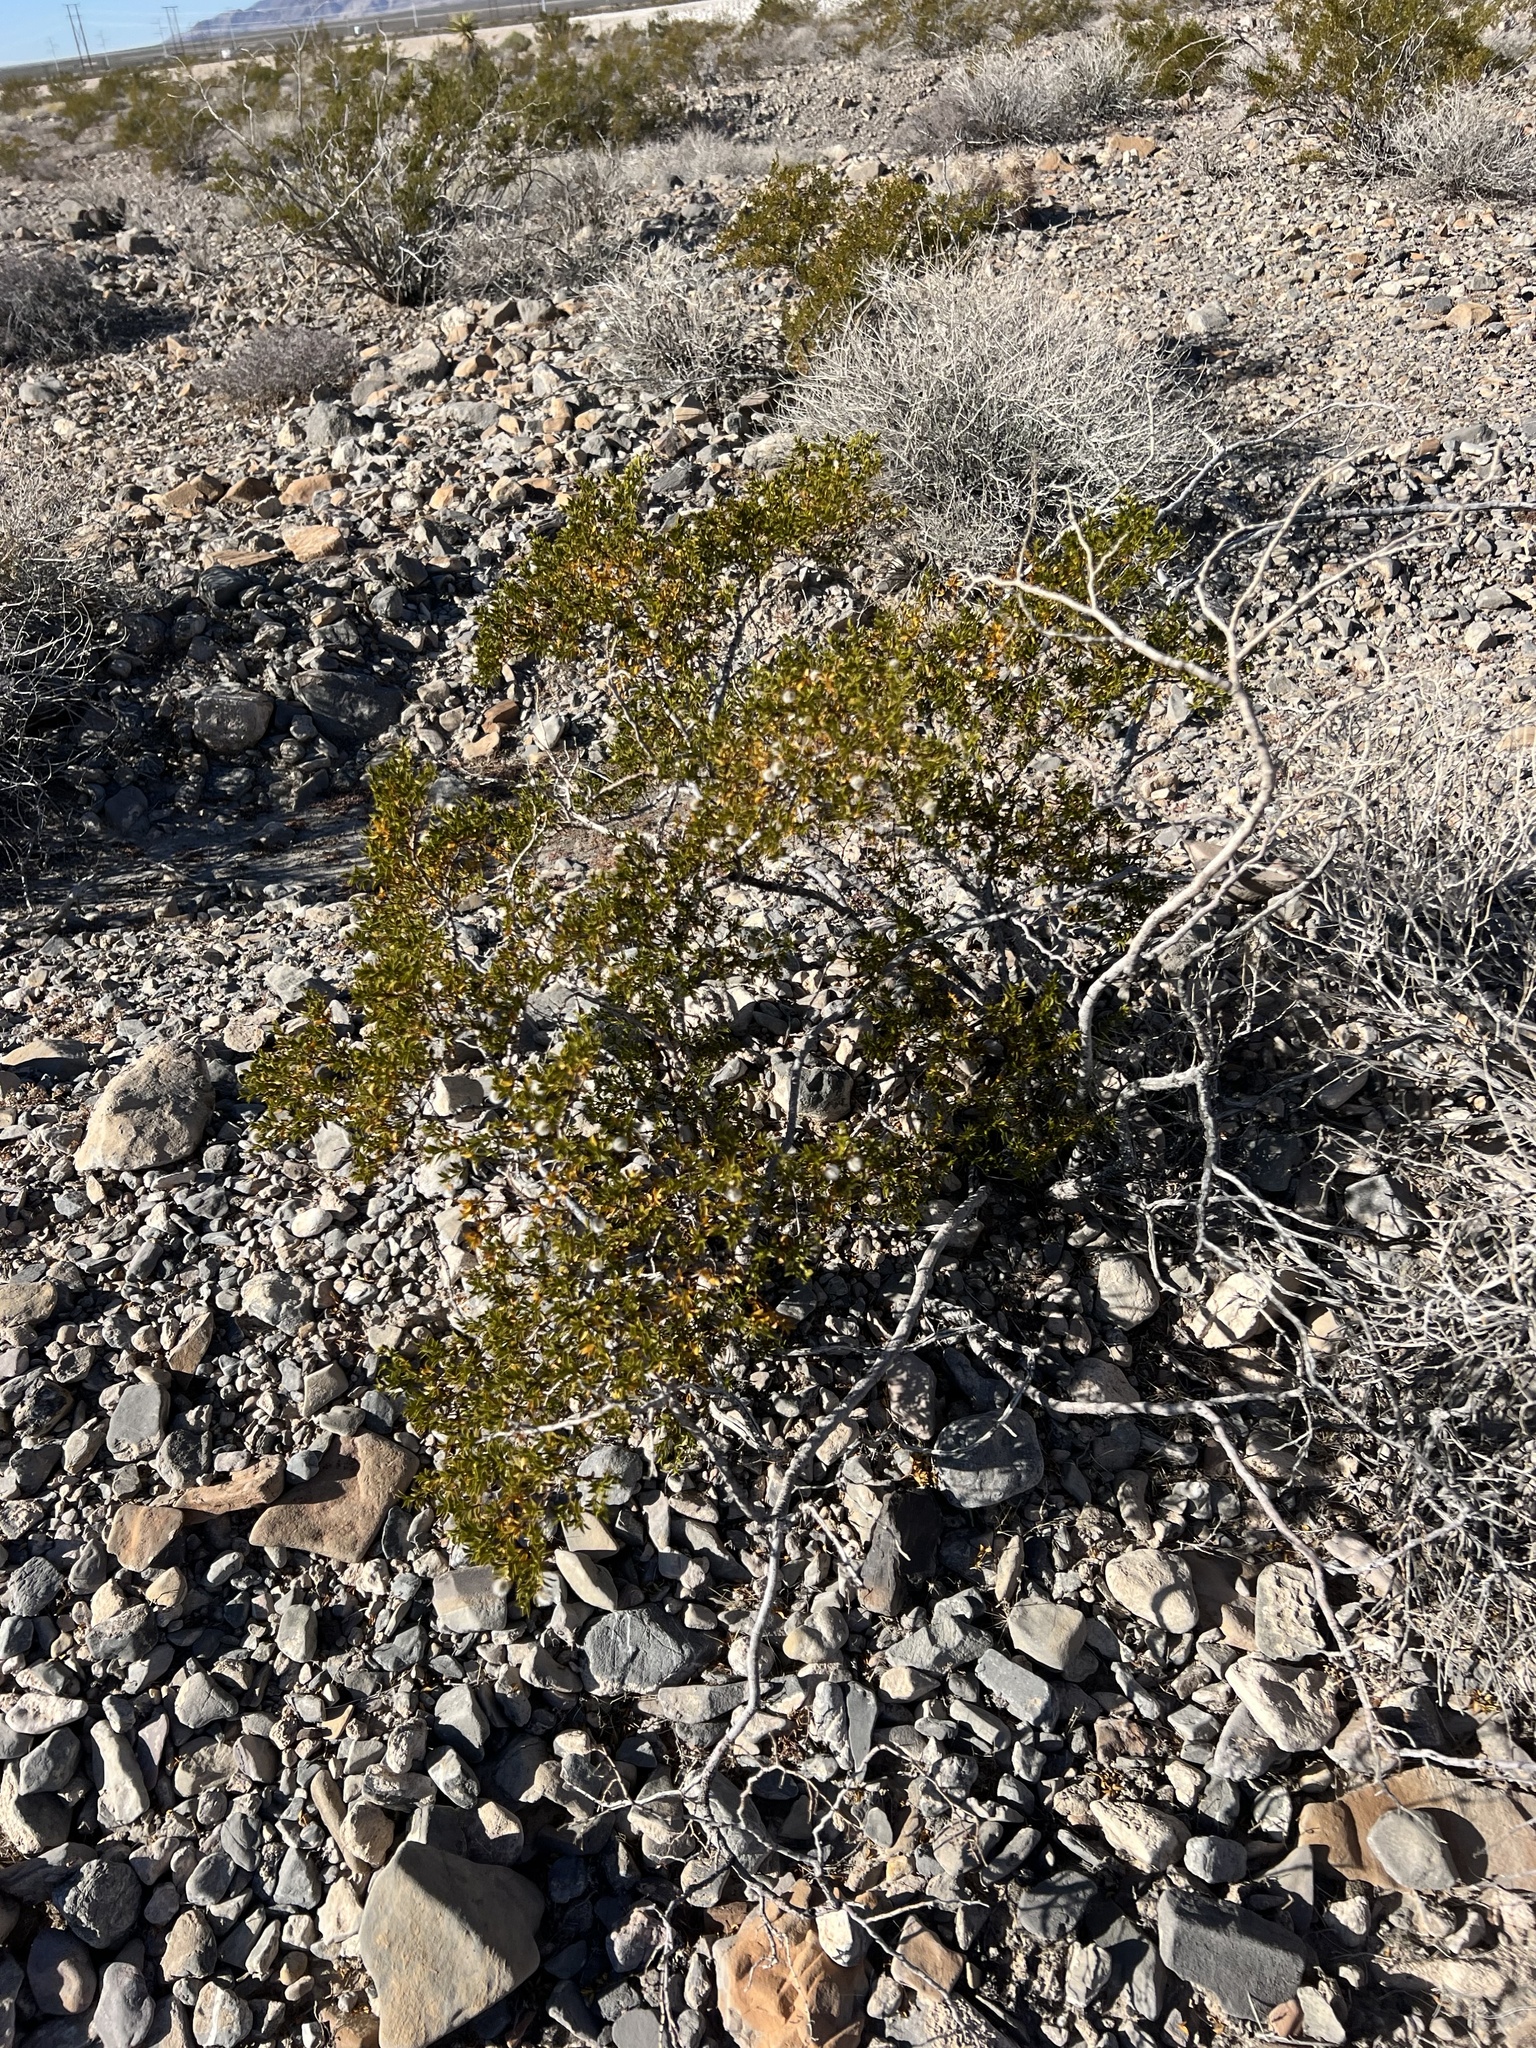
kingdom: Plantae
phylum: Tracheophyta
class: Magnoliopsida
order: Zygophyllales
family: Zygophyllaceae
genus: Larrea
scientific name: Larrea tridentata
